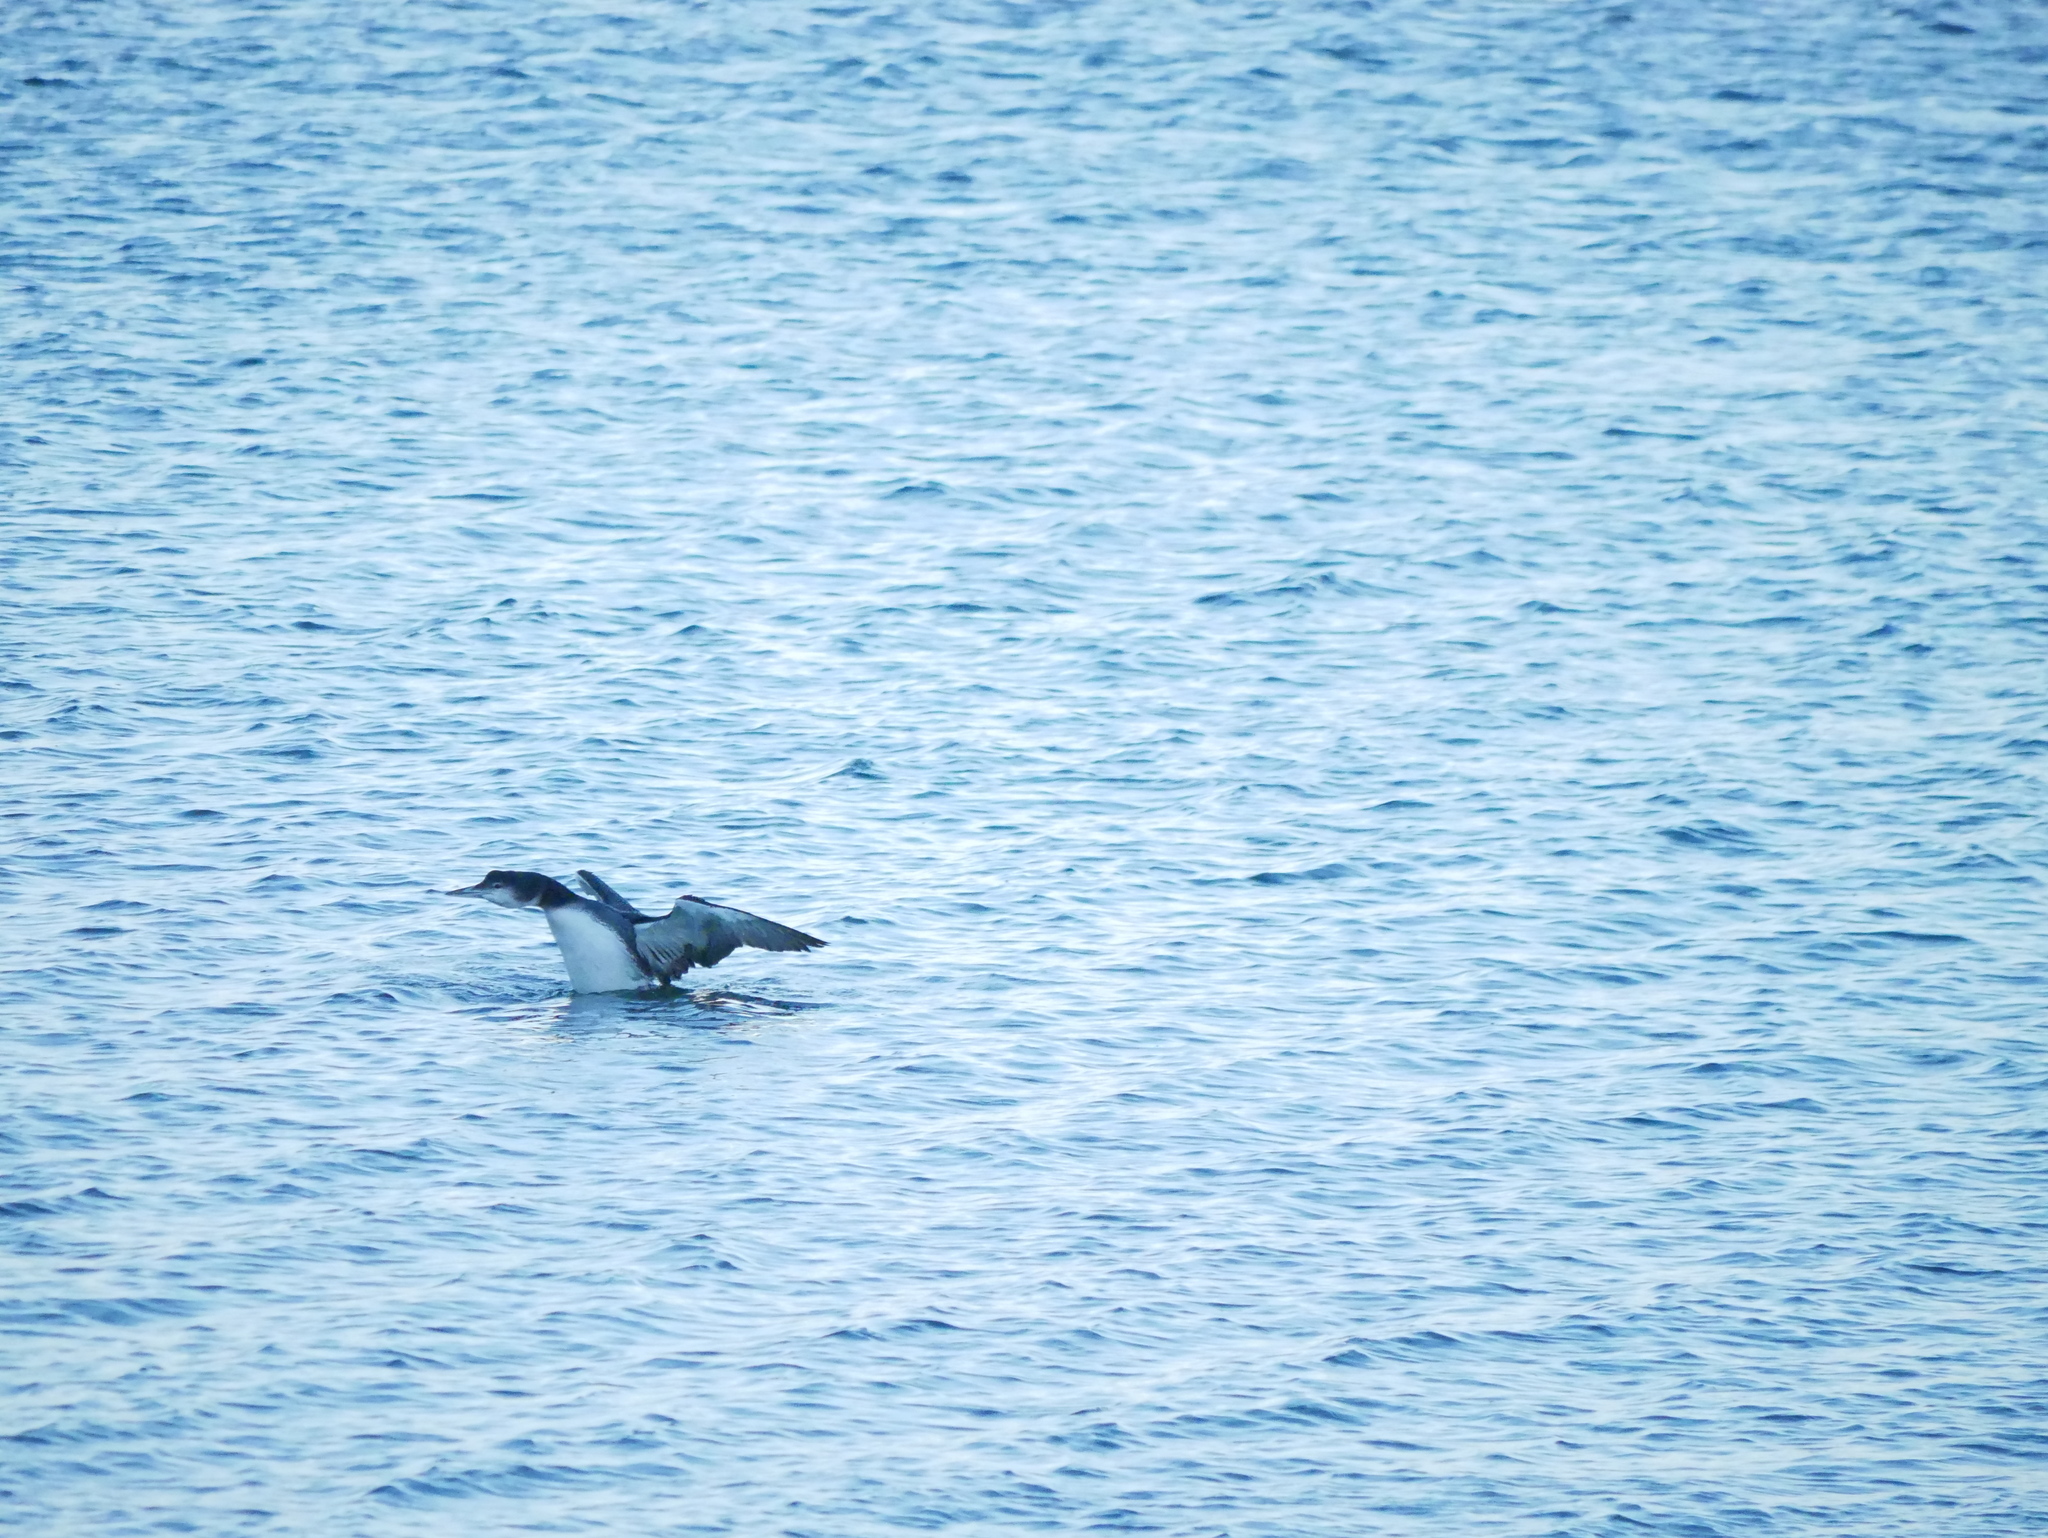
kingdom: Animalia
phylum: Chordata
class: Aves
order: Gaviiformes
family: Gaviidae
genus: Gavia
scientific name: Gavia immer
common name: Common loon
